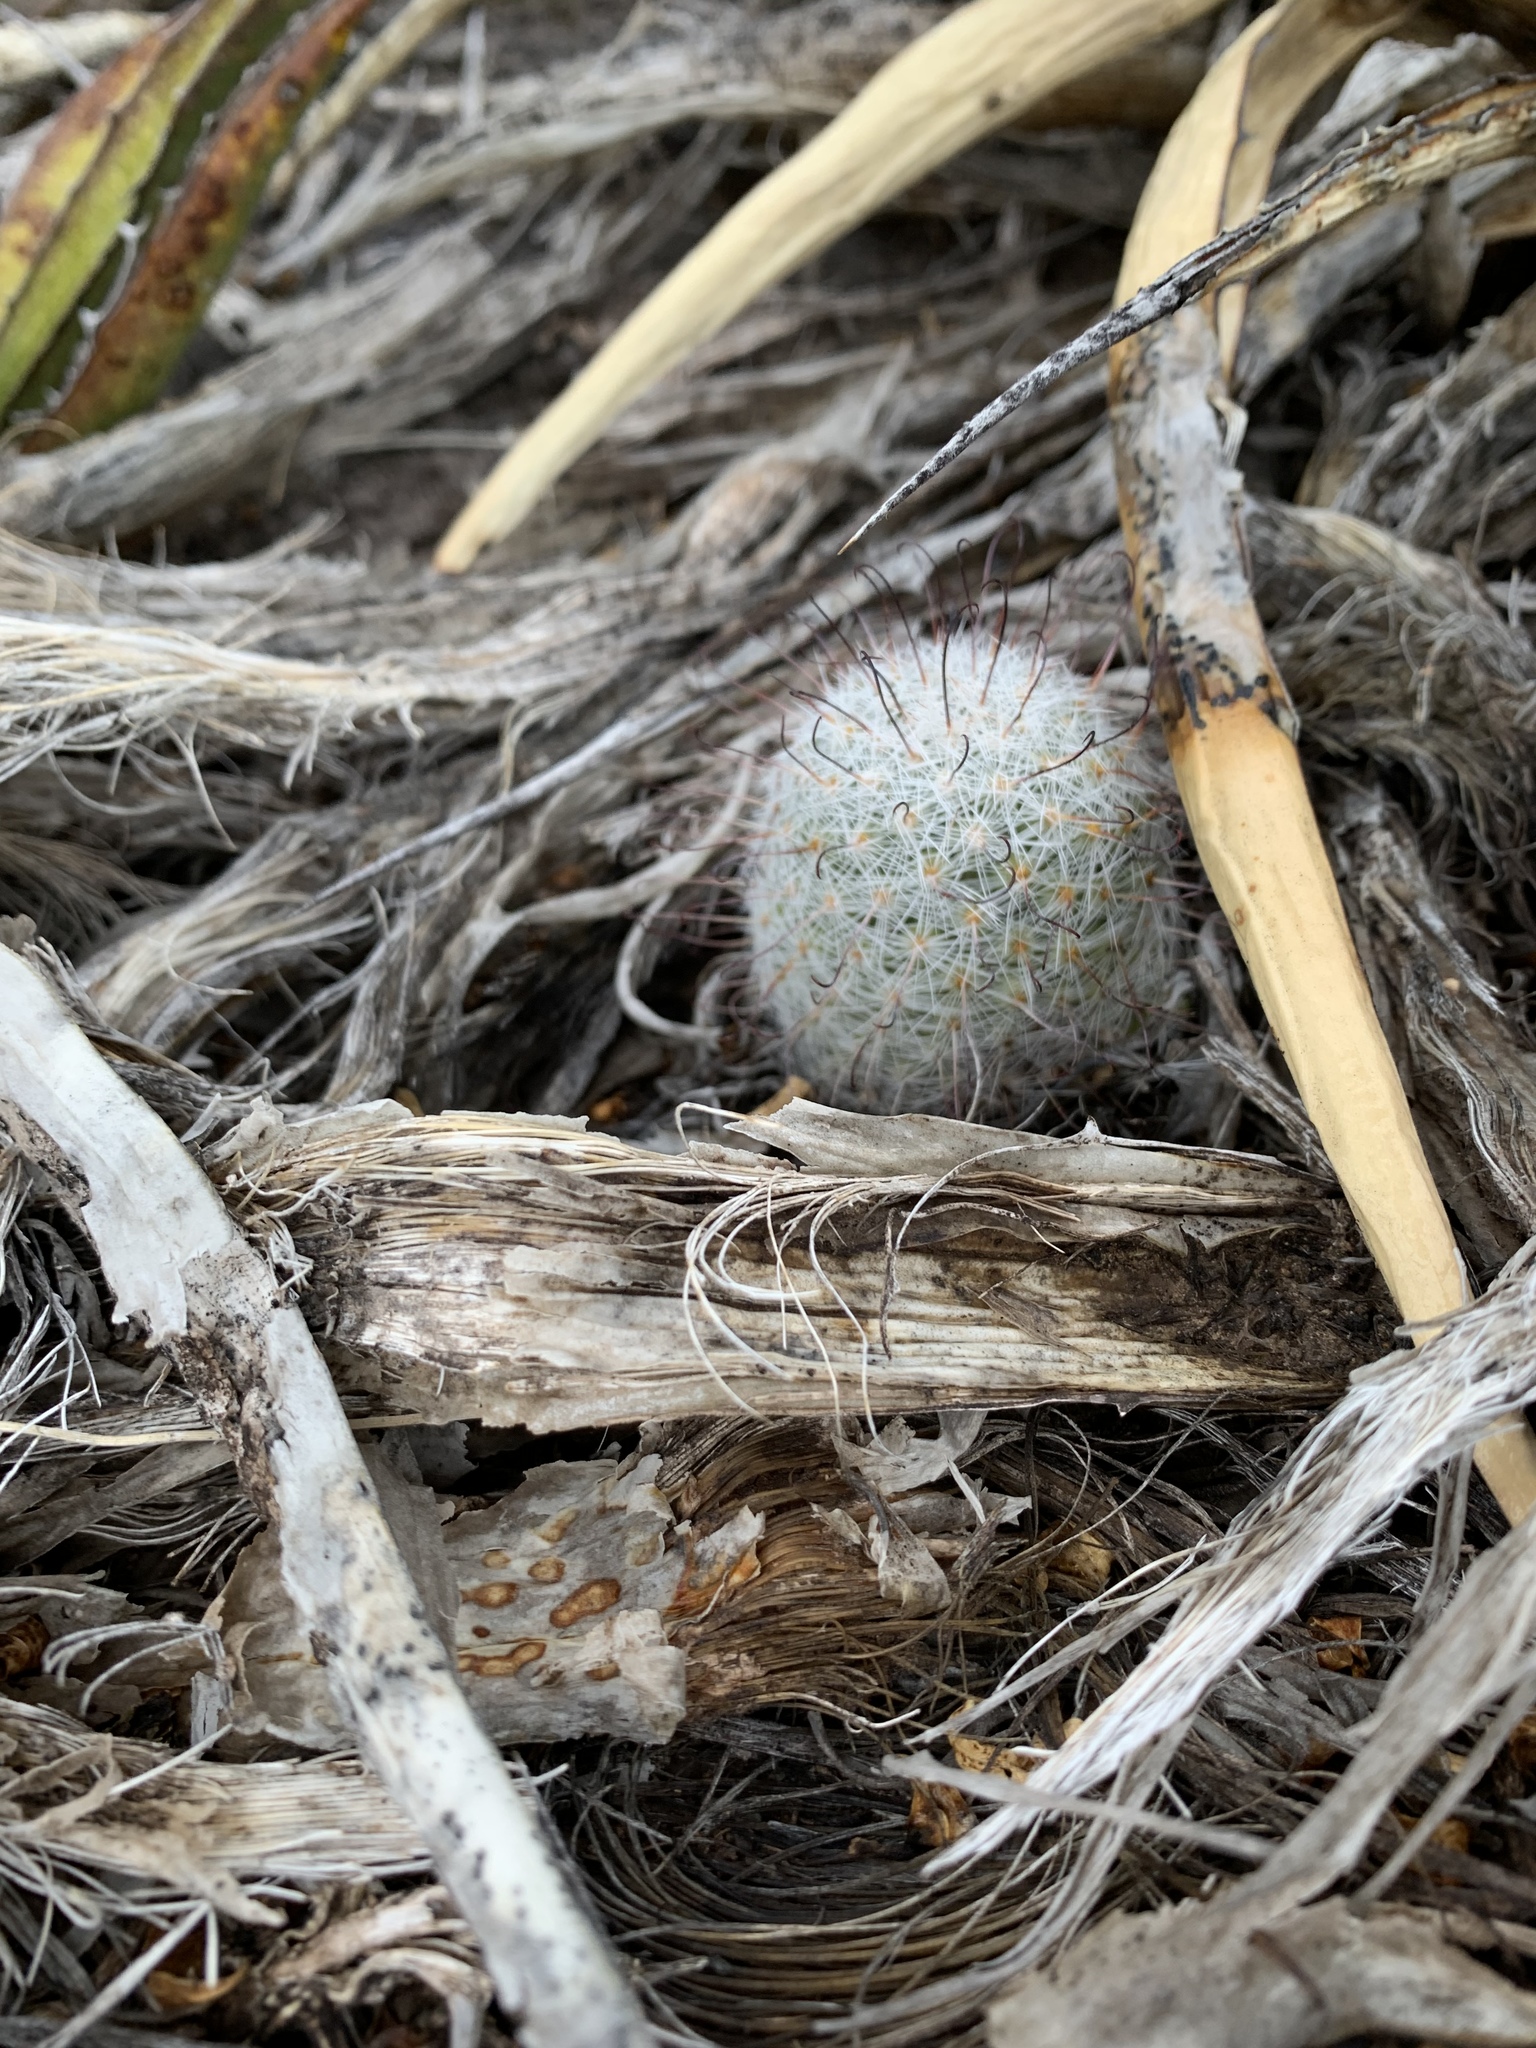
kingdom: Plantae
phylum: Tracheophyta
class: Magnoliopsida
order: Caryophyllales
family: Cactaceae
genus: Cochemiea
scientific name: Cochemiea grahamii
